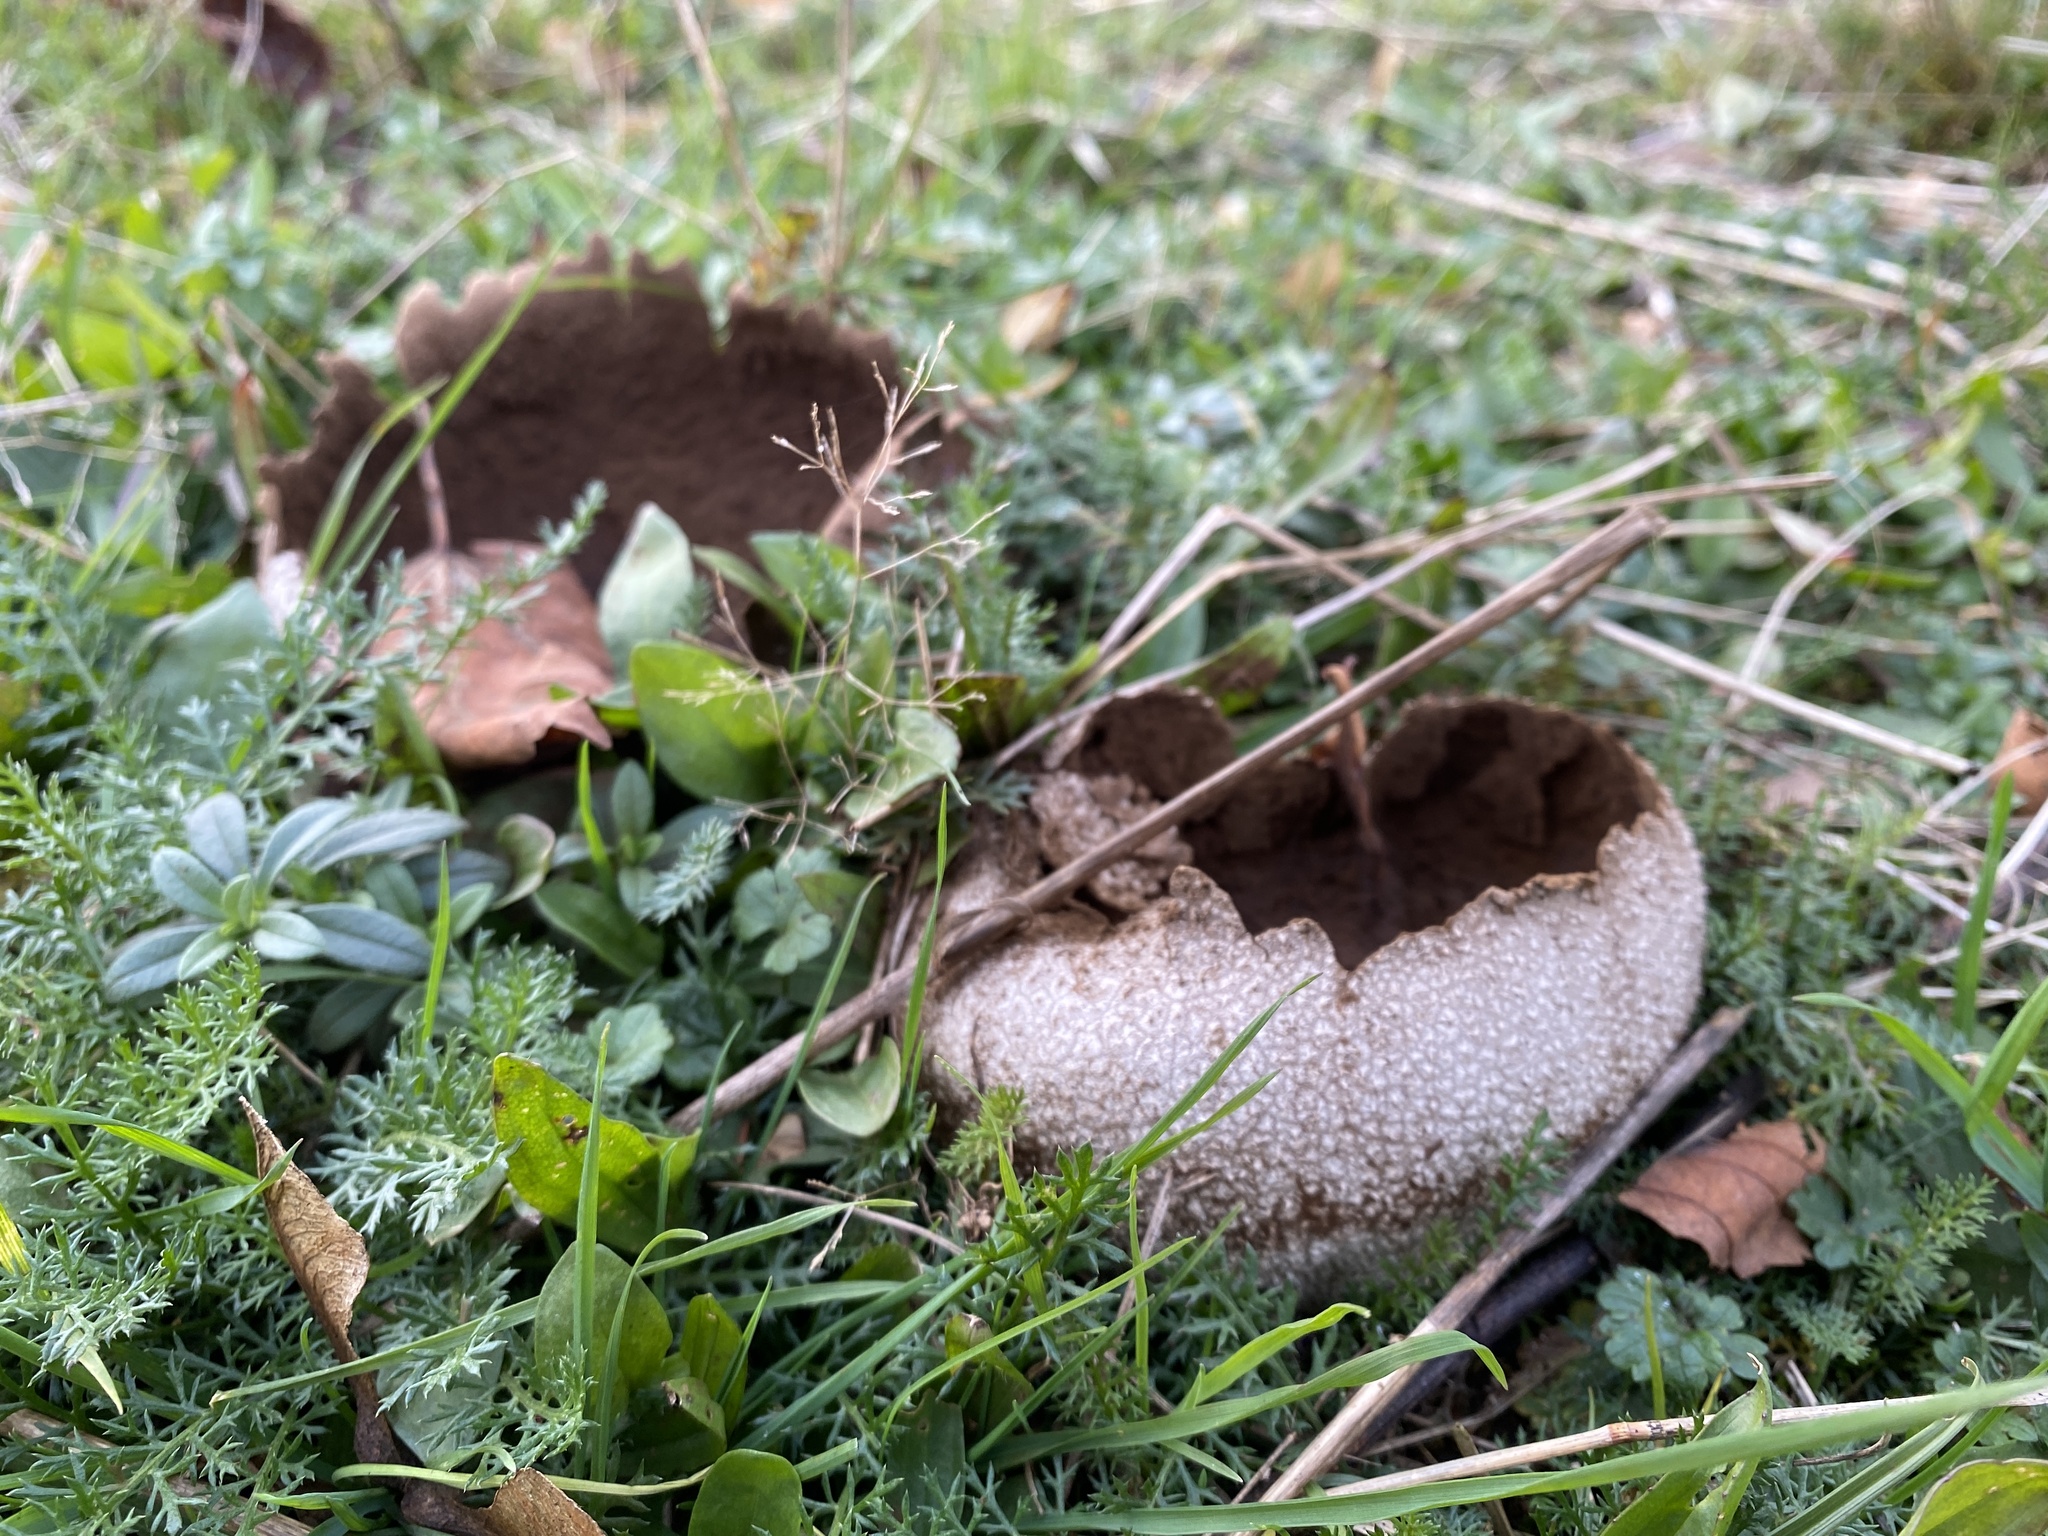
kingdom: Fungi
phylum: Basidiomycota
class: Agaricomycetes
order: Agaricales
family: Lycoperdaceae
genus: Bovistella
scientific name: Bovistella utriformis
